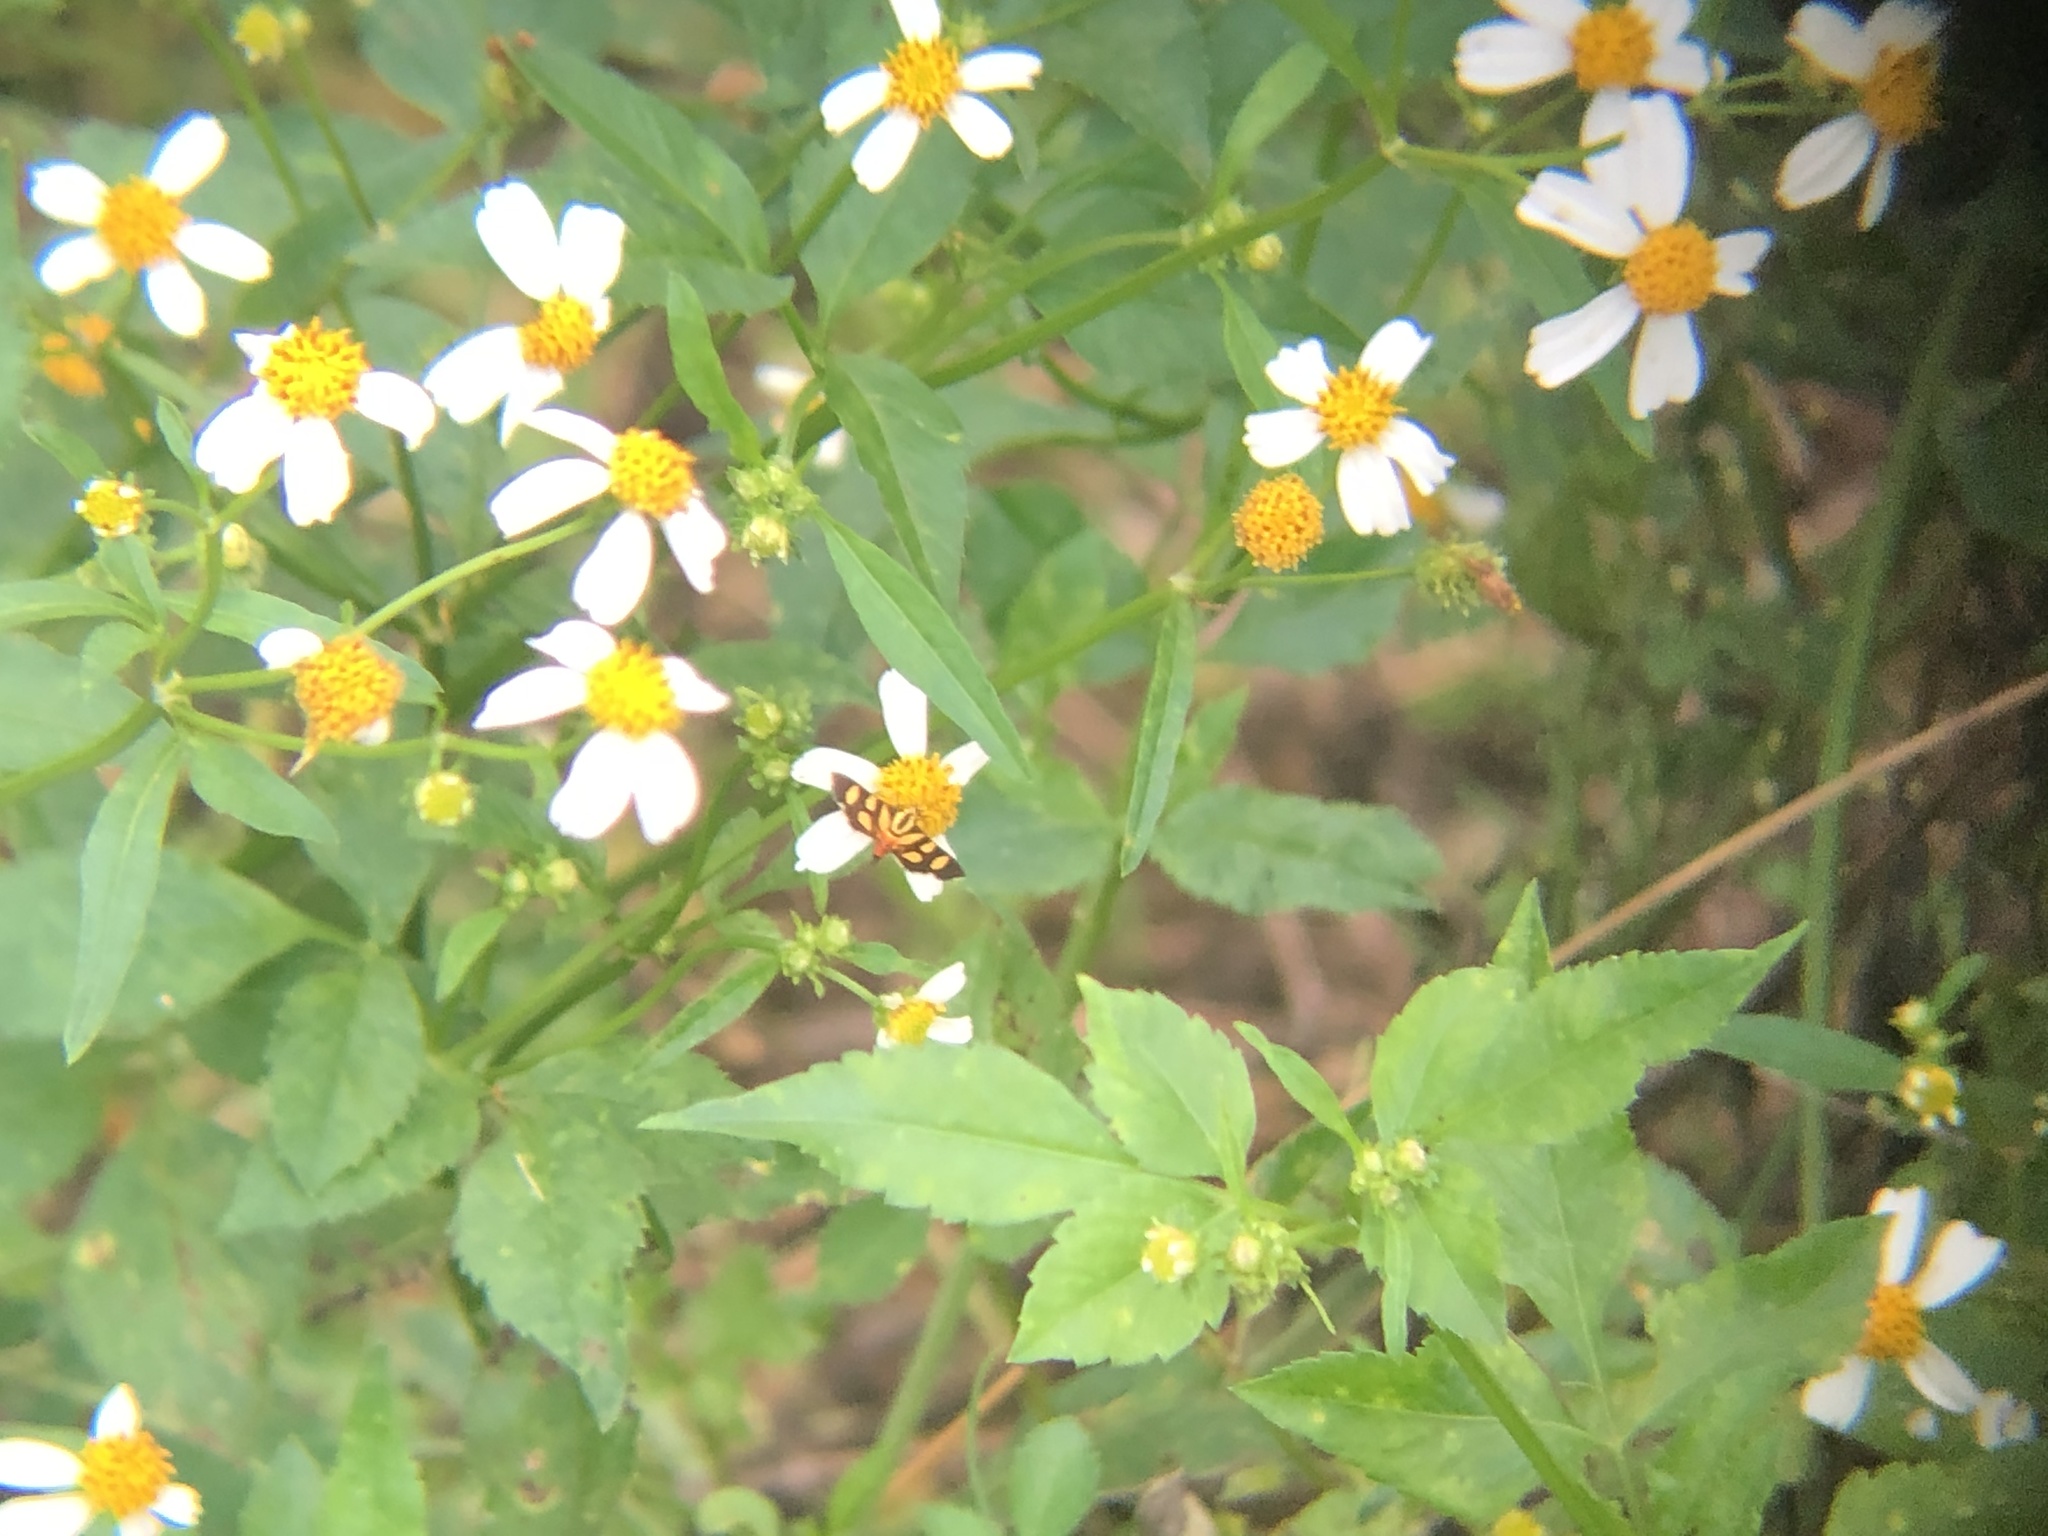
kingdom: Animalia
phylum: Arthropoda
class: Insecta
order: Lepidoptera
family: Crambidae
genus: Syngamia
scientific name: Syngamia florella
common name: Orange-spotted flower moth
